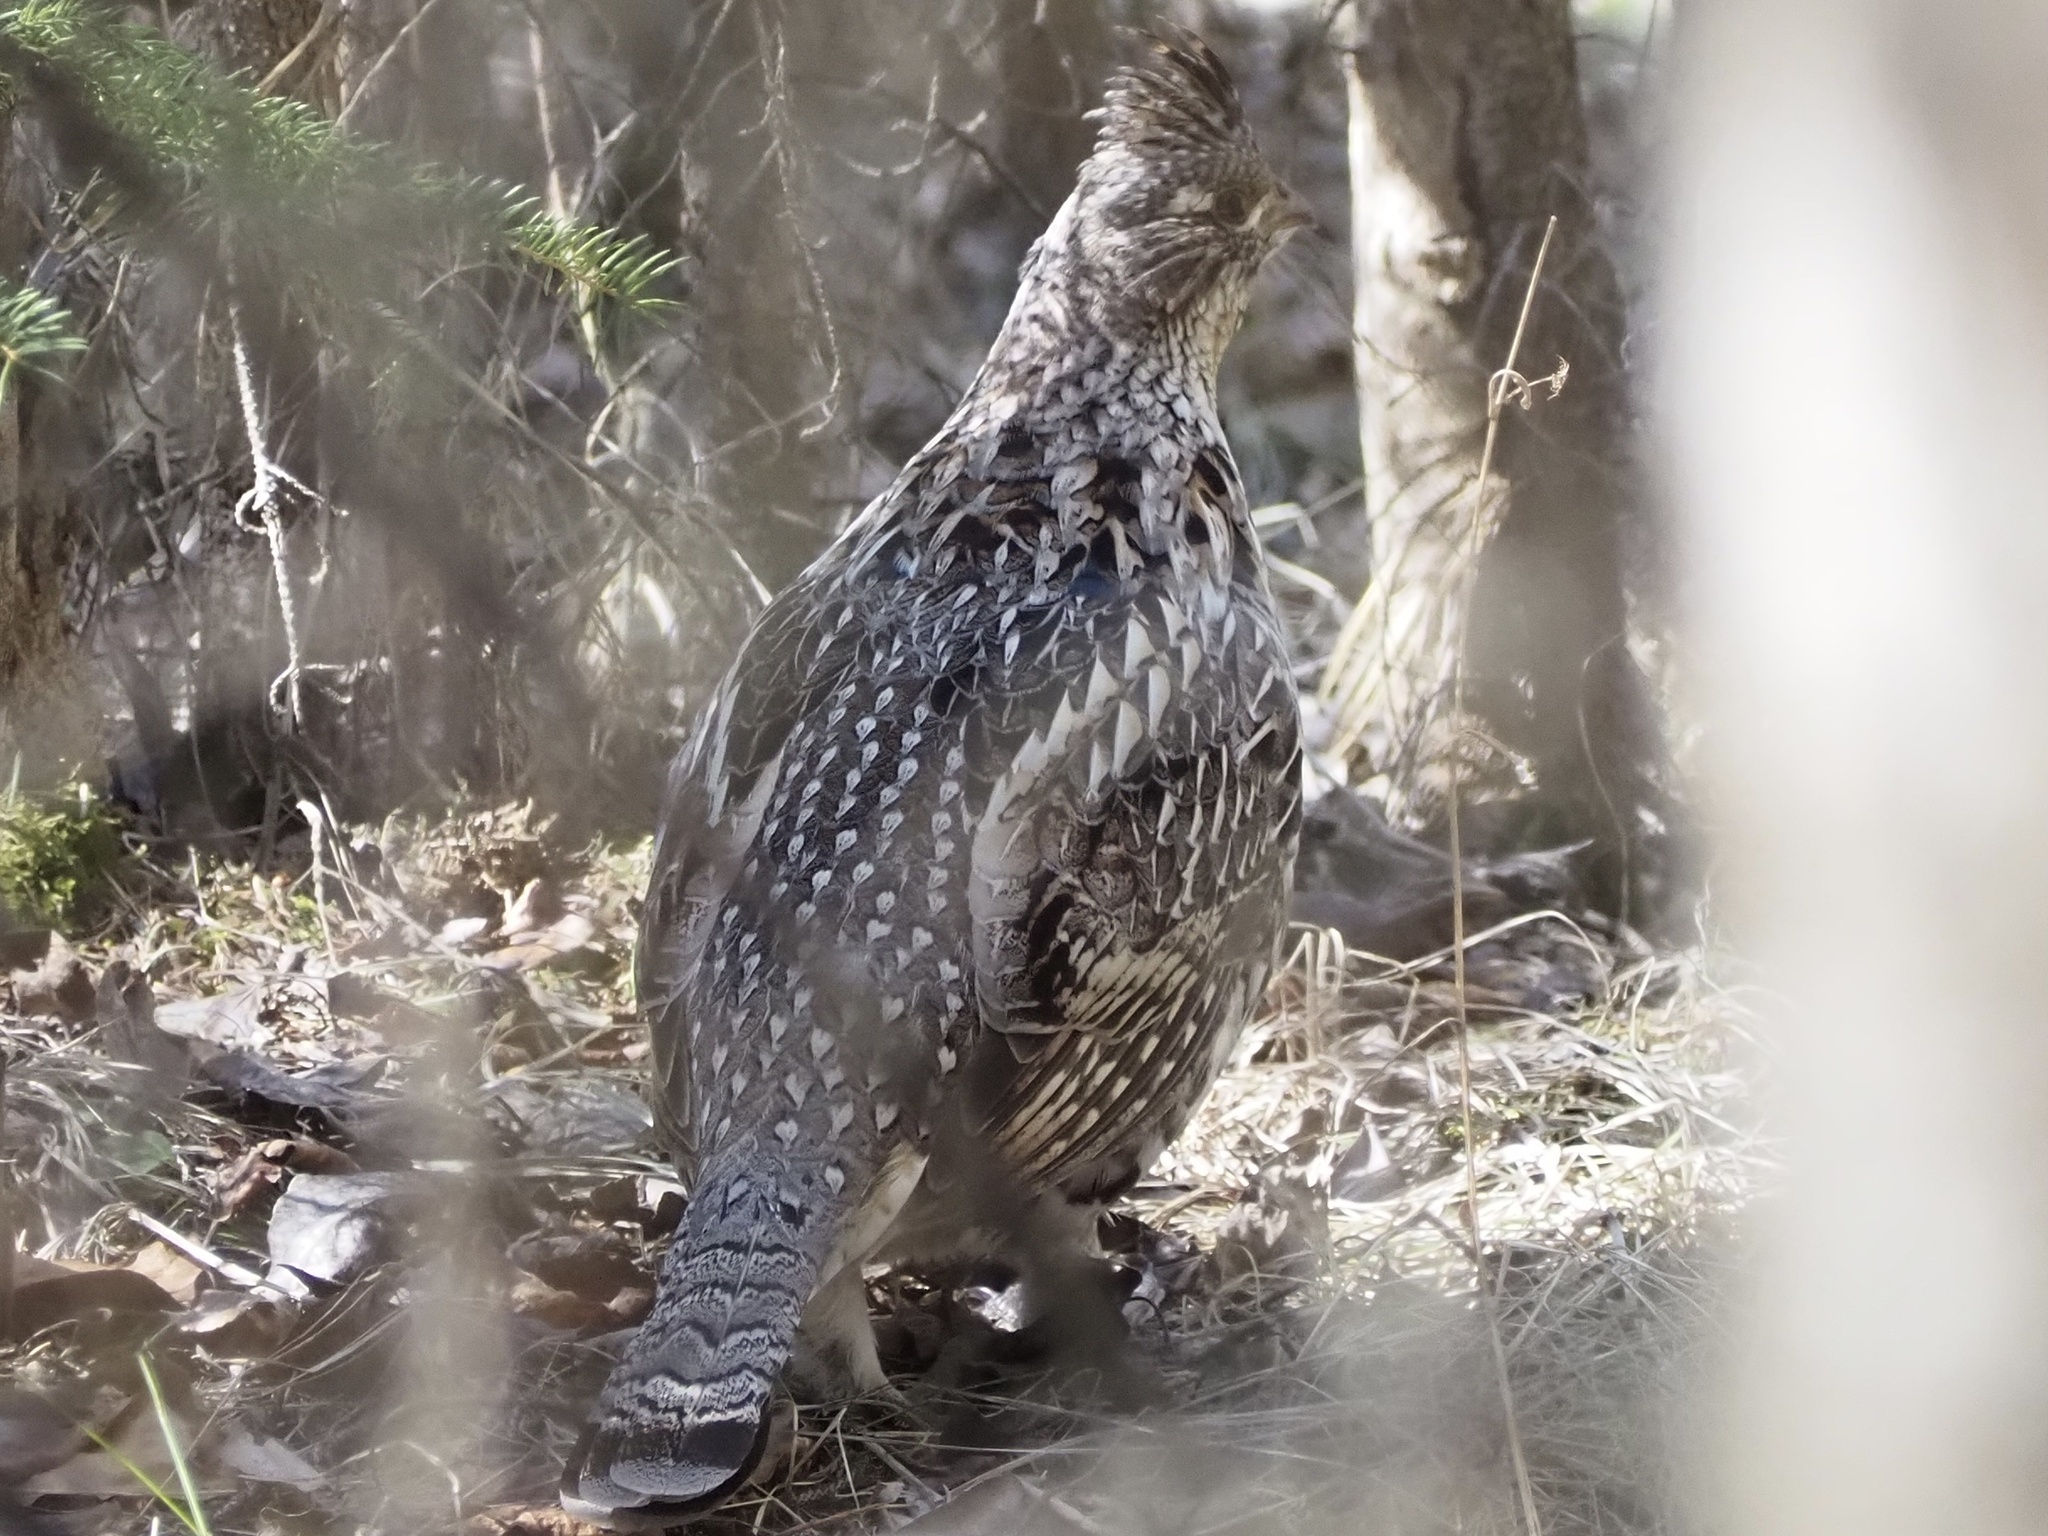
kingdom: Animalia
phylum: Chordata
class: Aves
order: Galliformes
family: Phasianidae
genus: Bonasa
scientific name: Bonasa umbellus
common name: Ruffed grouse
